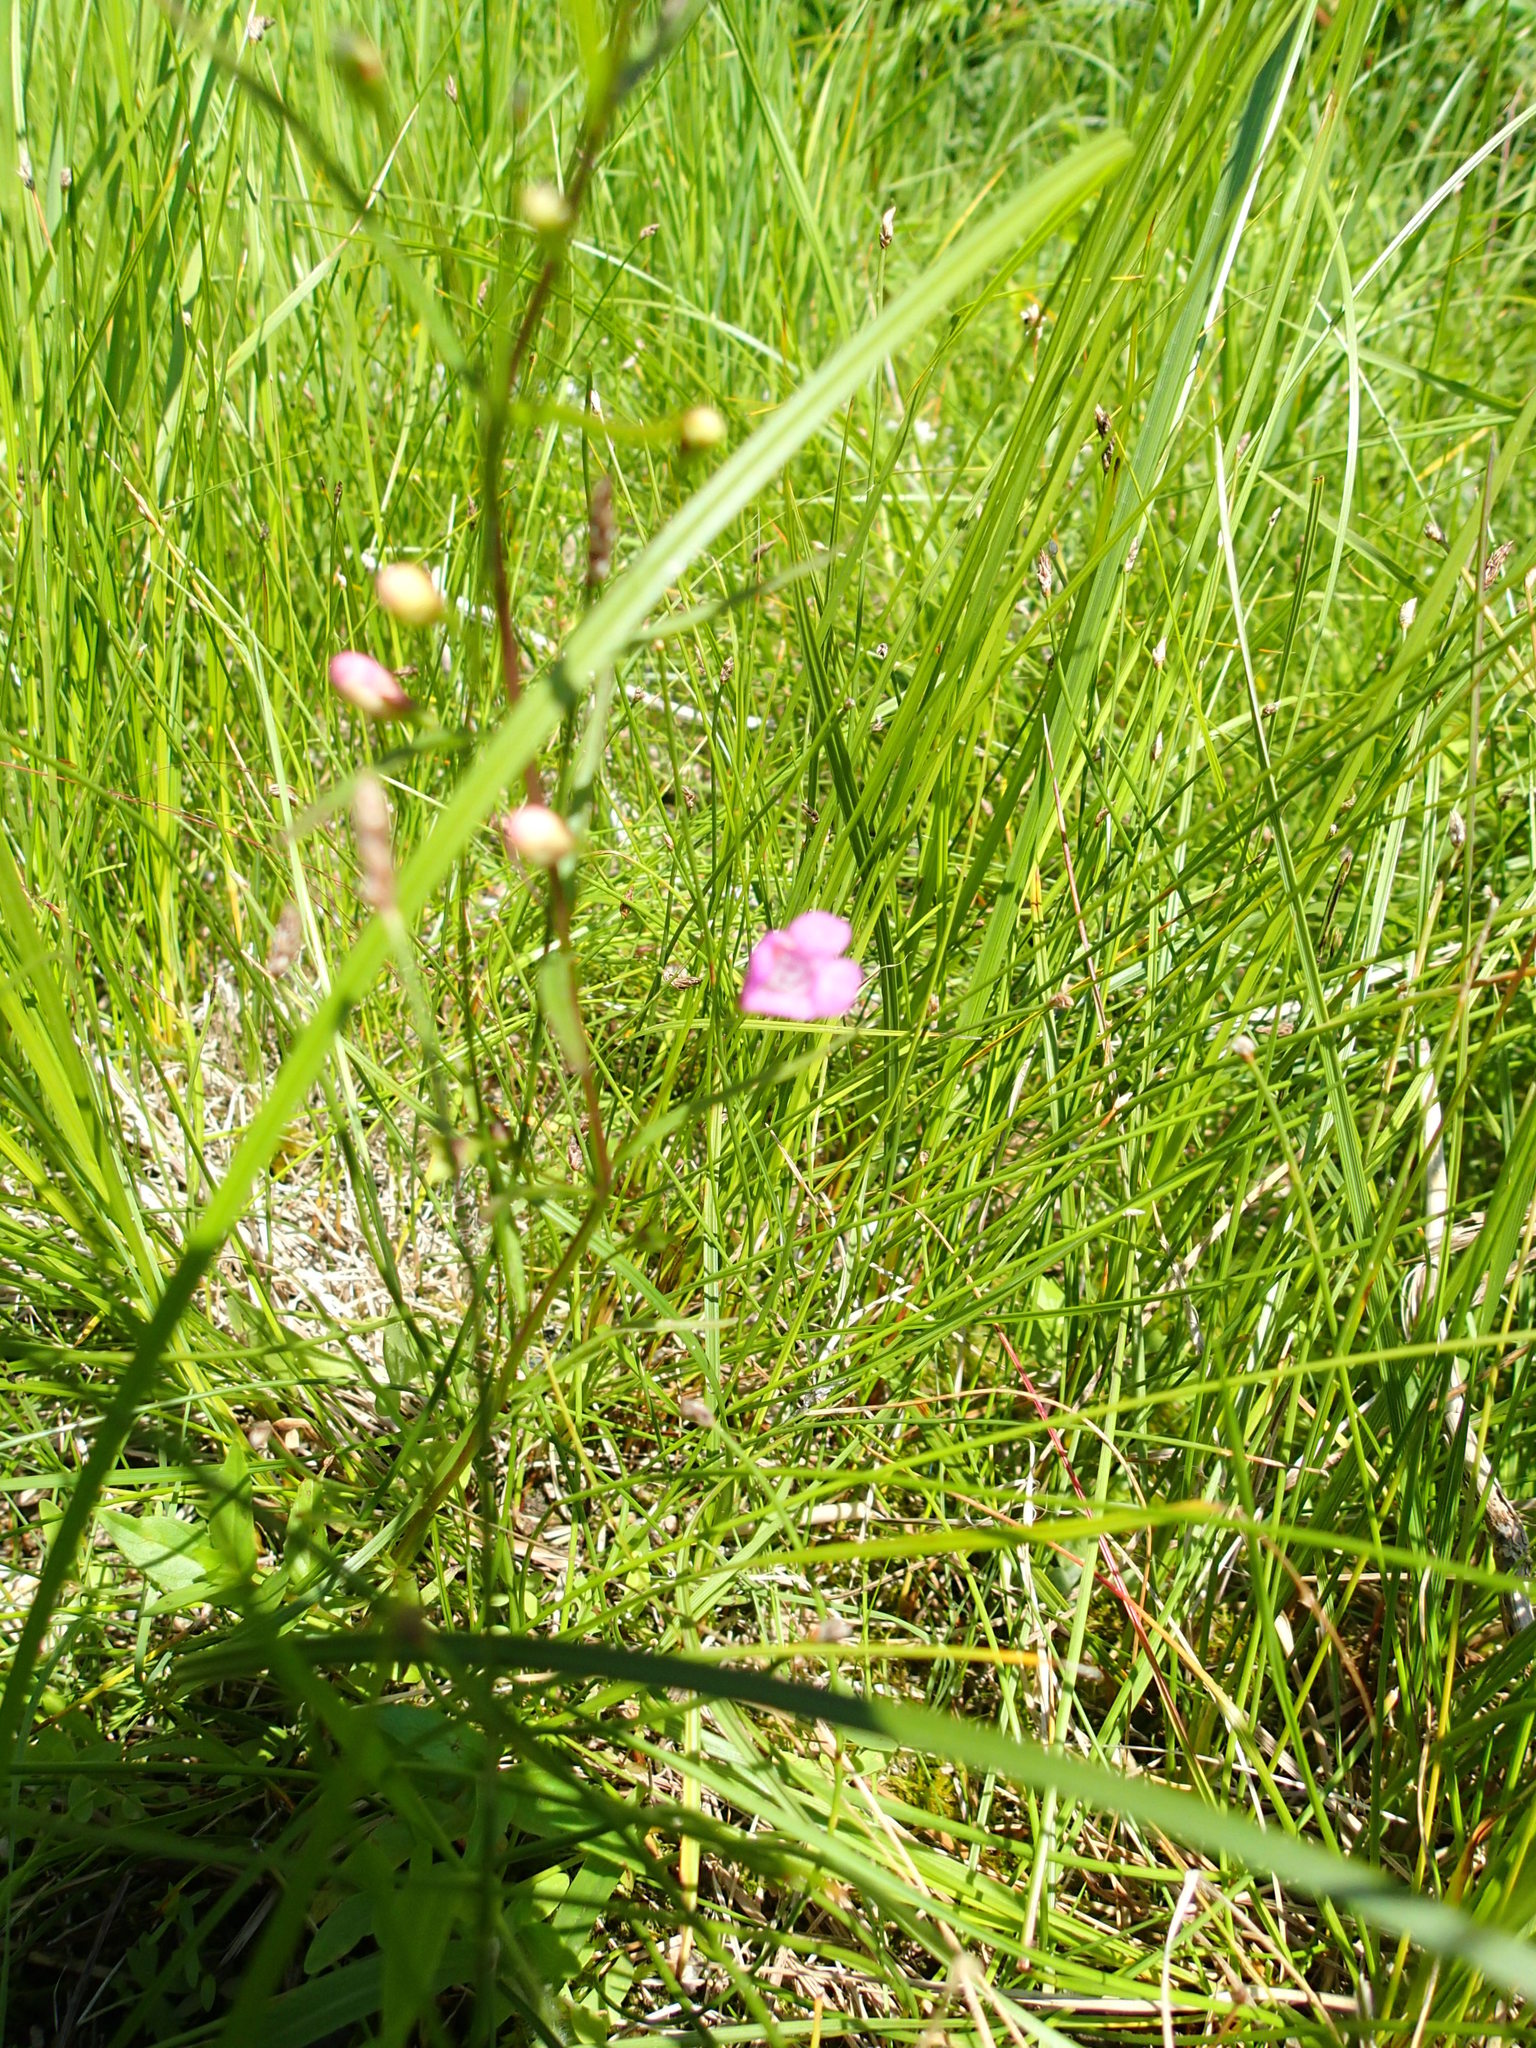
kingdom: Plantae
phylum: Tracheophyta
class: Magnoliopsida
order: Lamiales
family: Orobanchaceae
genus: Agalinis
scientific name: Agalinis tenuifolia
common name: Slender agalinis
